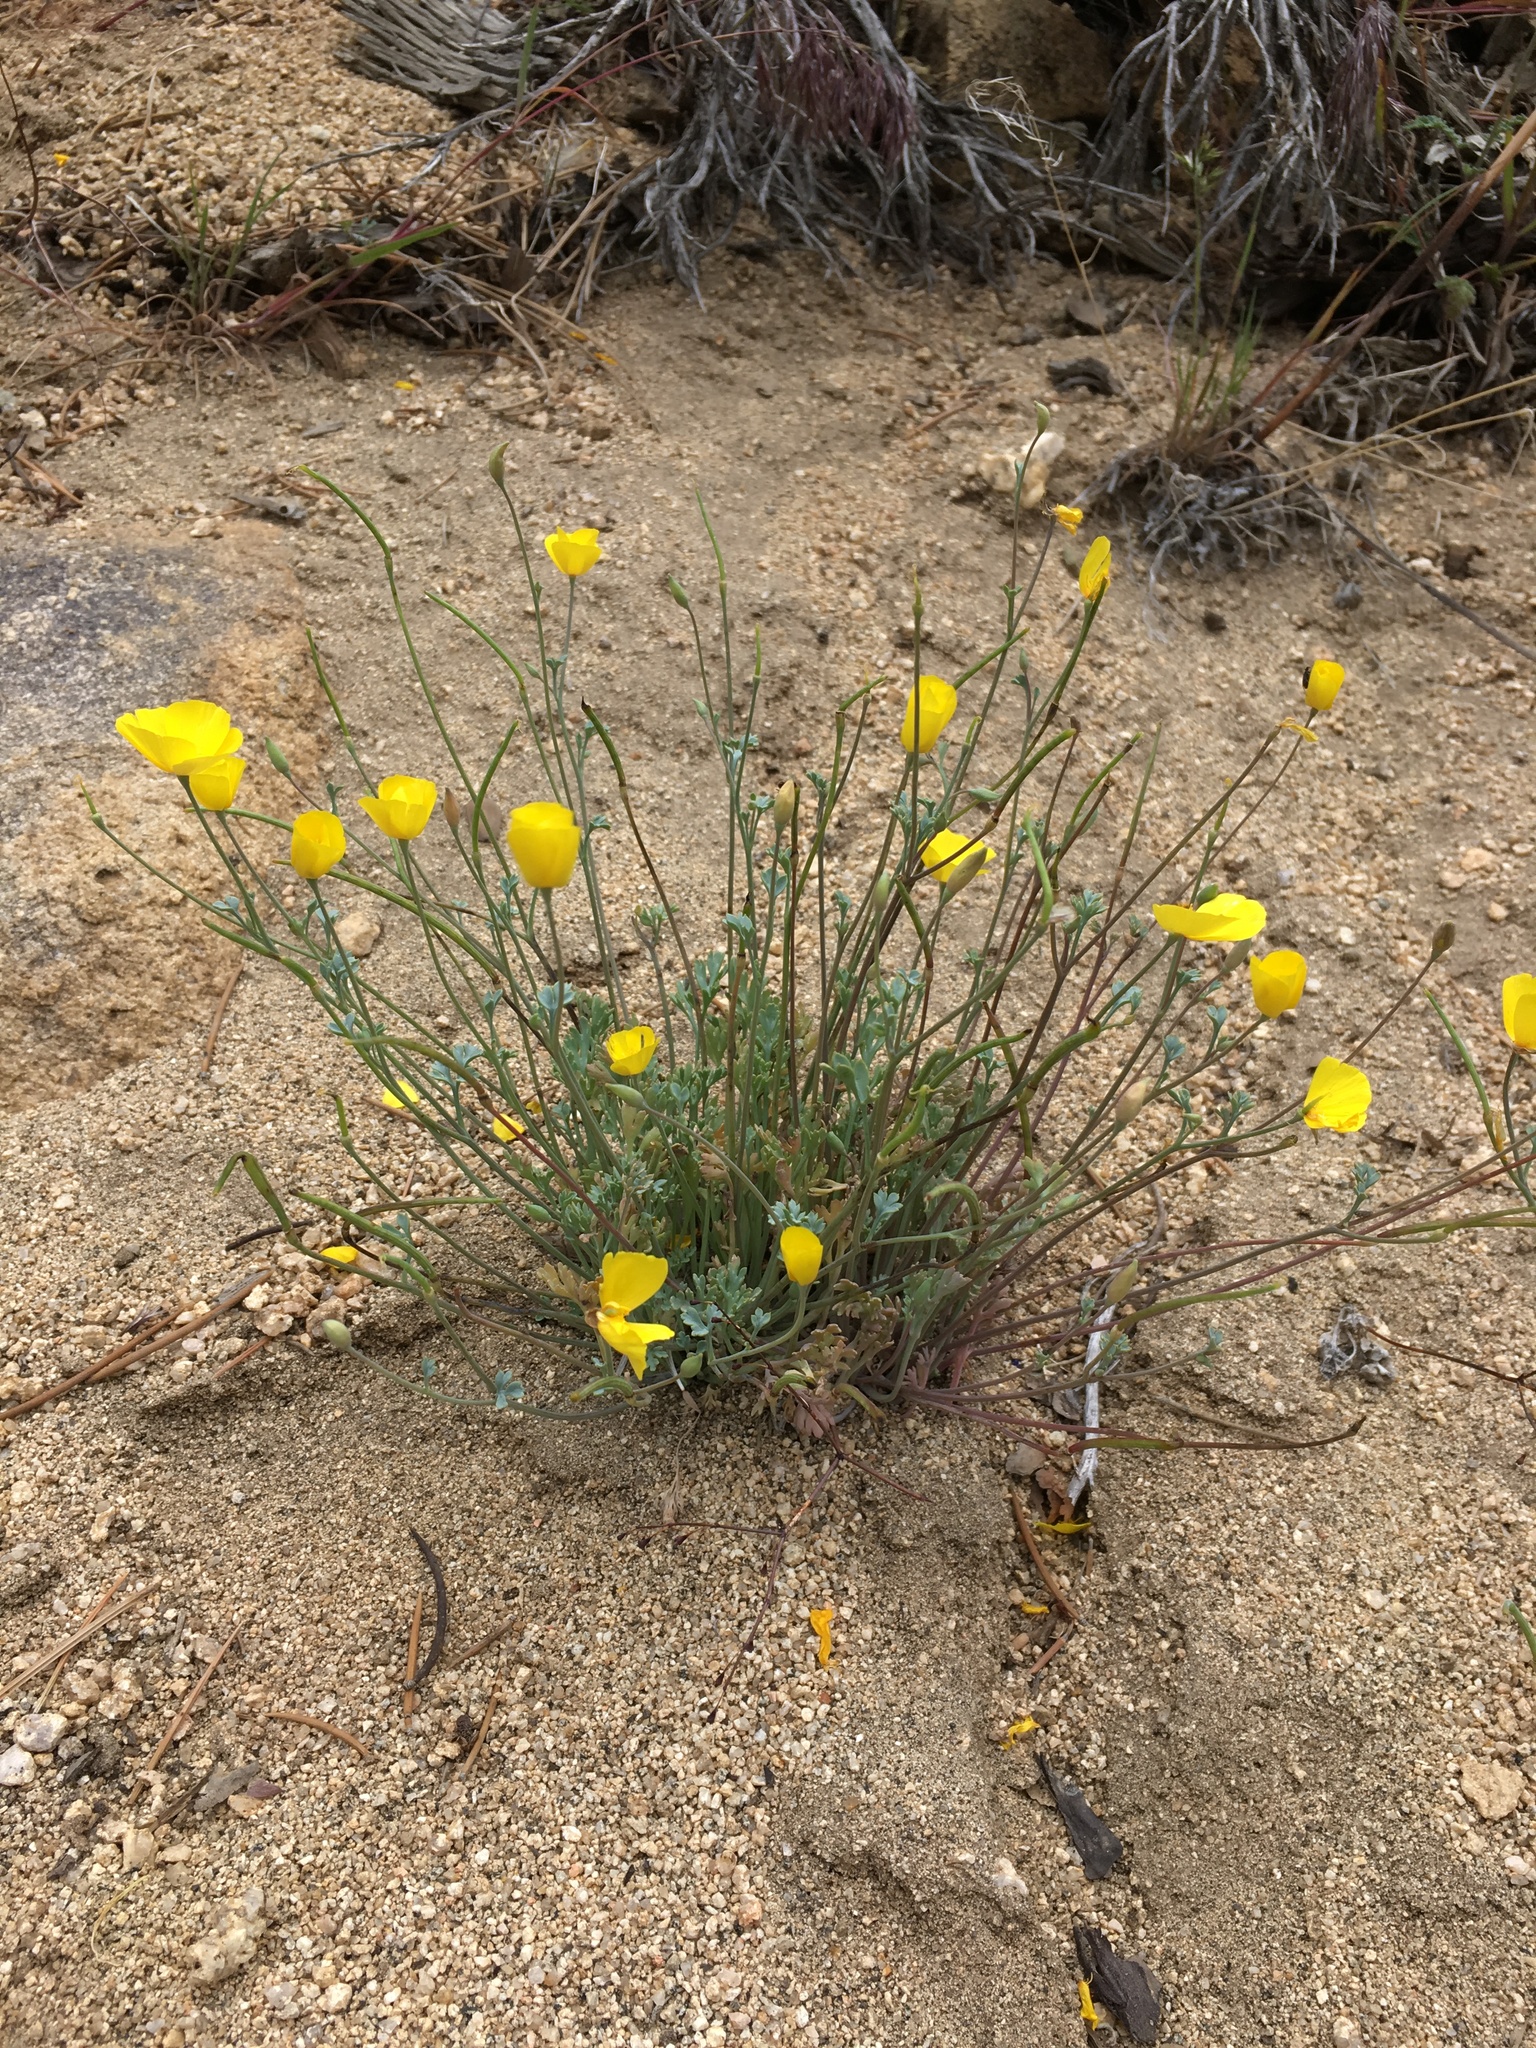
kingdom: Plantae
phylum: Tracheophyta
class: Magnoliopsida
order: Ranunculales
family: Papaveraceae
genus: Eschscholzia
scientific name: Eschscholzia minutiflora
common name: Small-flower california-poppy
